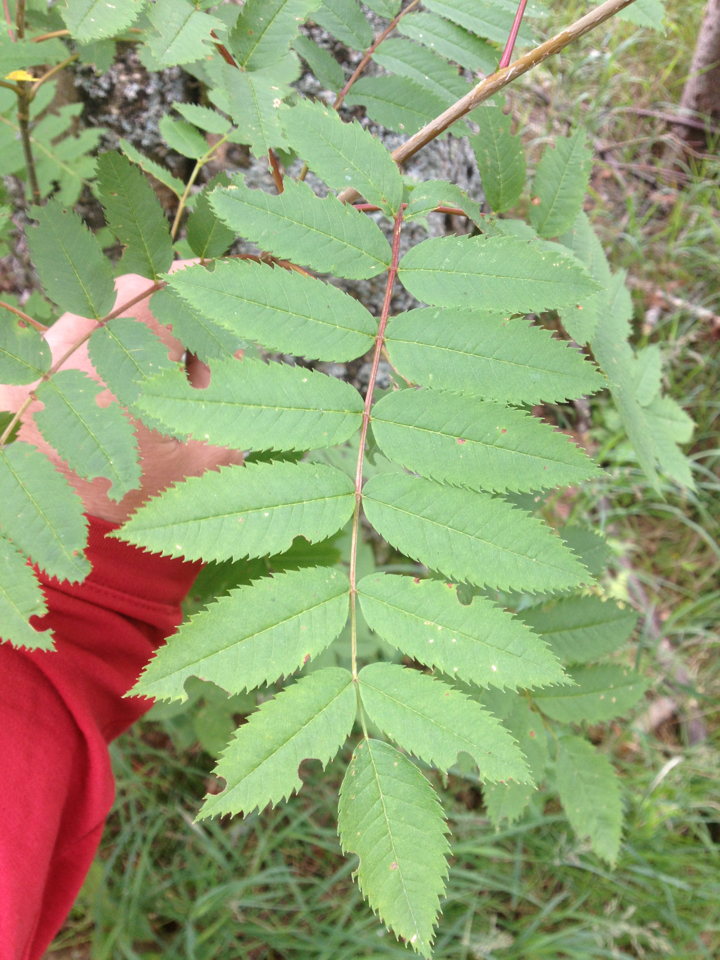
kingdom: Plantae
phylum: Tracheophyta
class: Magnoliopsida
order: Rosales
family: Rosaceae
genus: Sorbus
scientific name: Sorbus americana
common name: American mountain-ash
